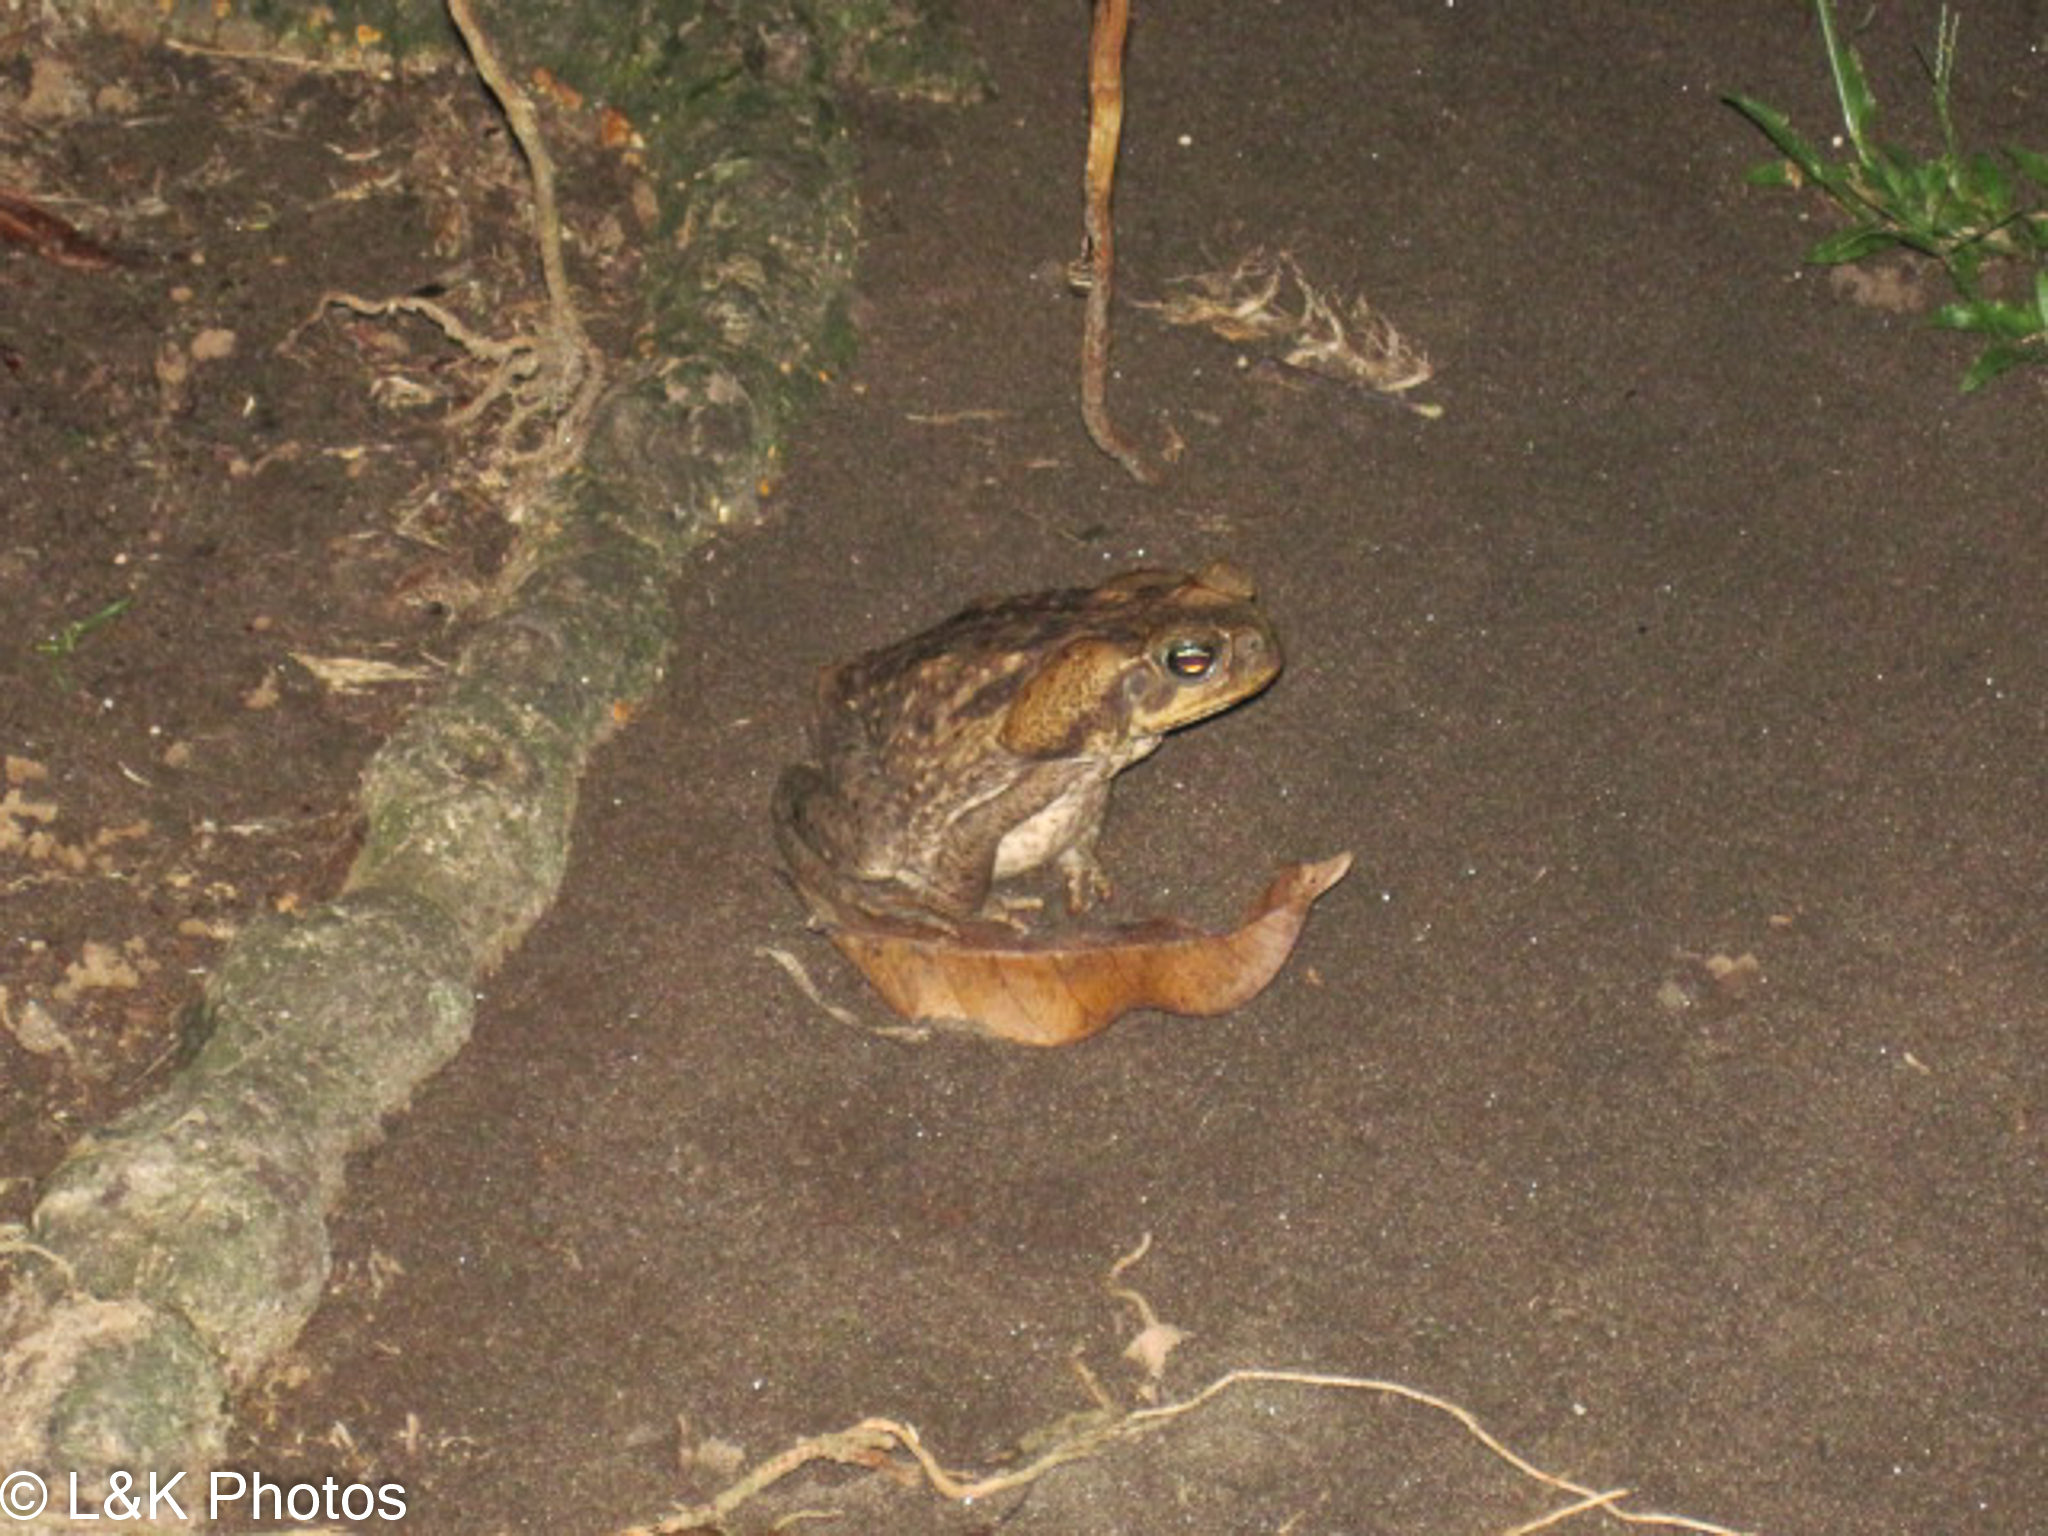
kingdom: Animalia
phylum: Chordata
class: Amphibia
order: Anura
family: Bufonidae
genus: Rhinella
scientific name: Rhinella horribilis
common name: Mesoamerican cane toad
